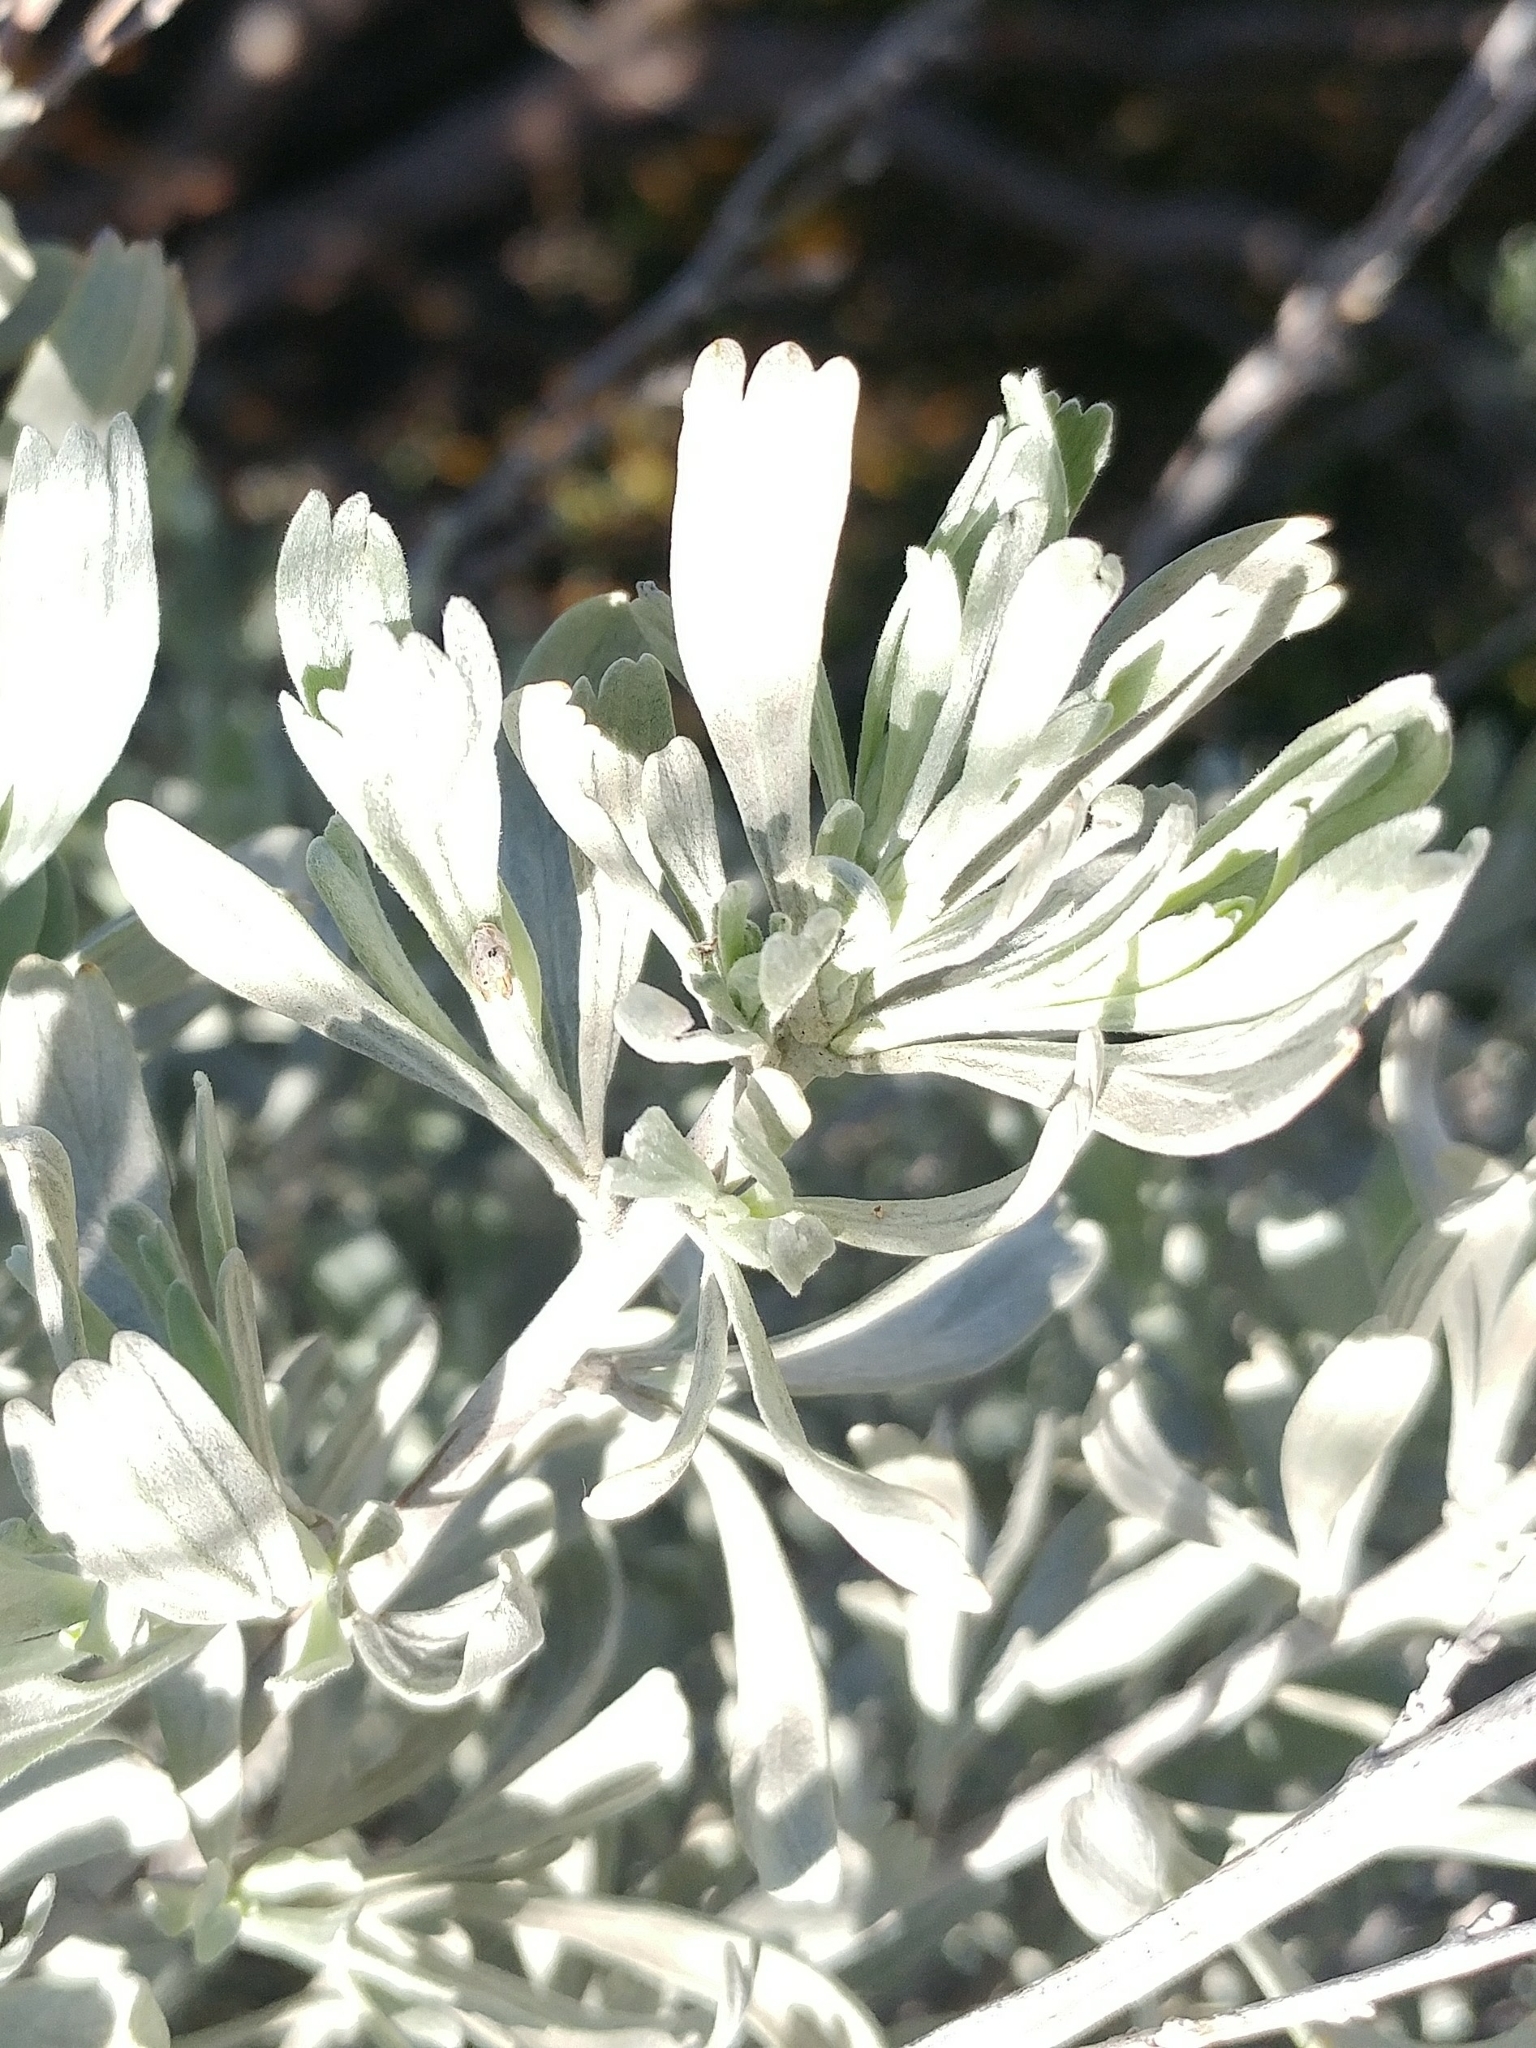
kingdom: Plantae
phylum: Tracheophyta
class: Magnoliopsida
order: Asterales
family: Asteraceae
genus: Artemisia
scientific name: Artemisia tridentata
